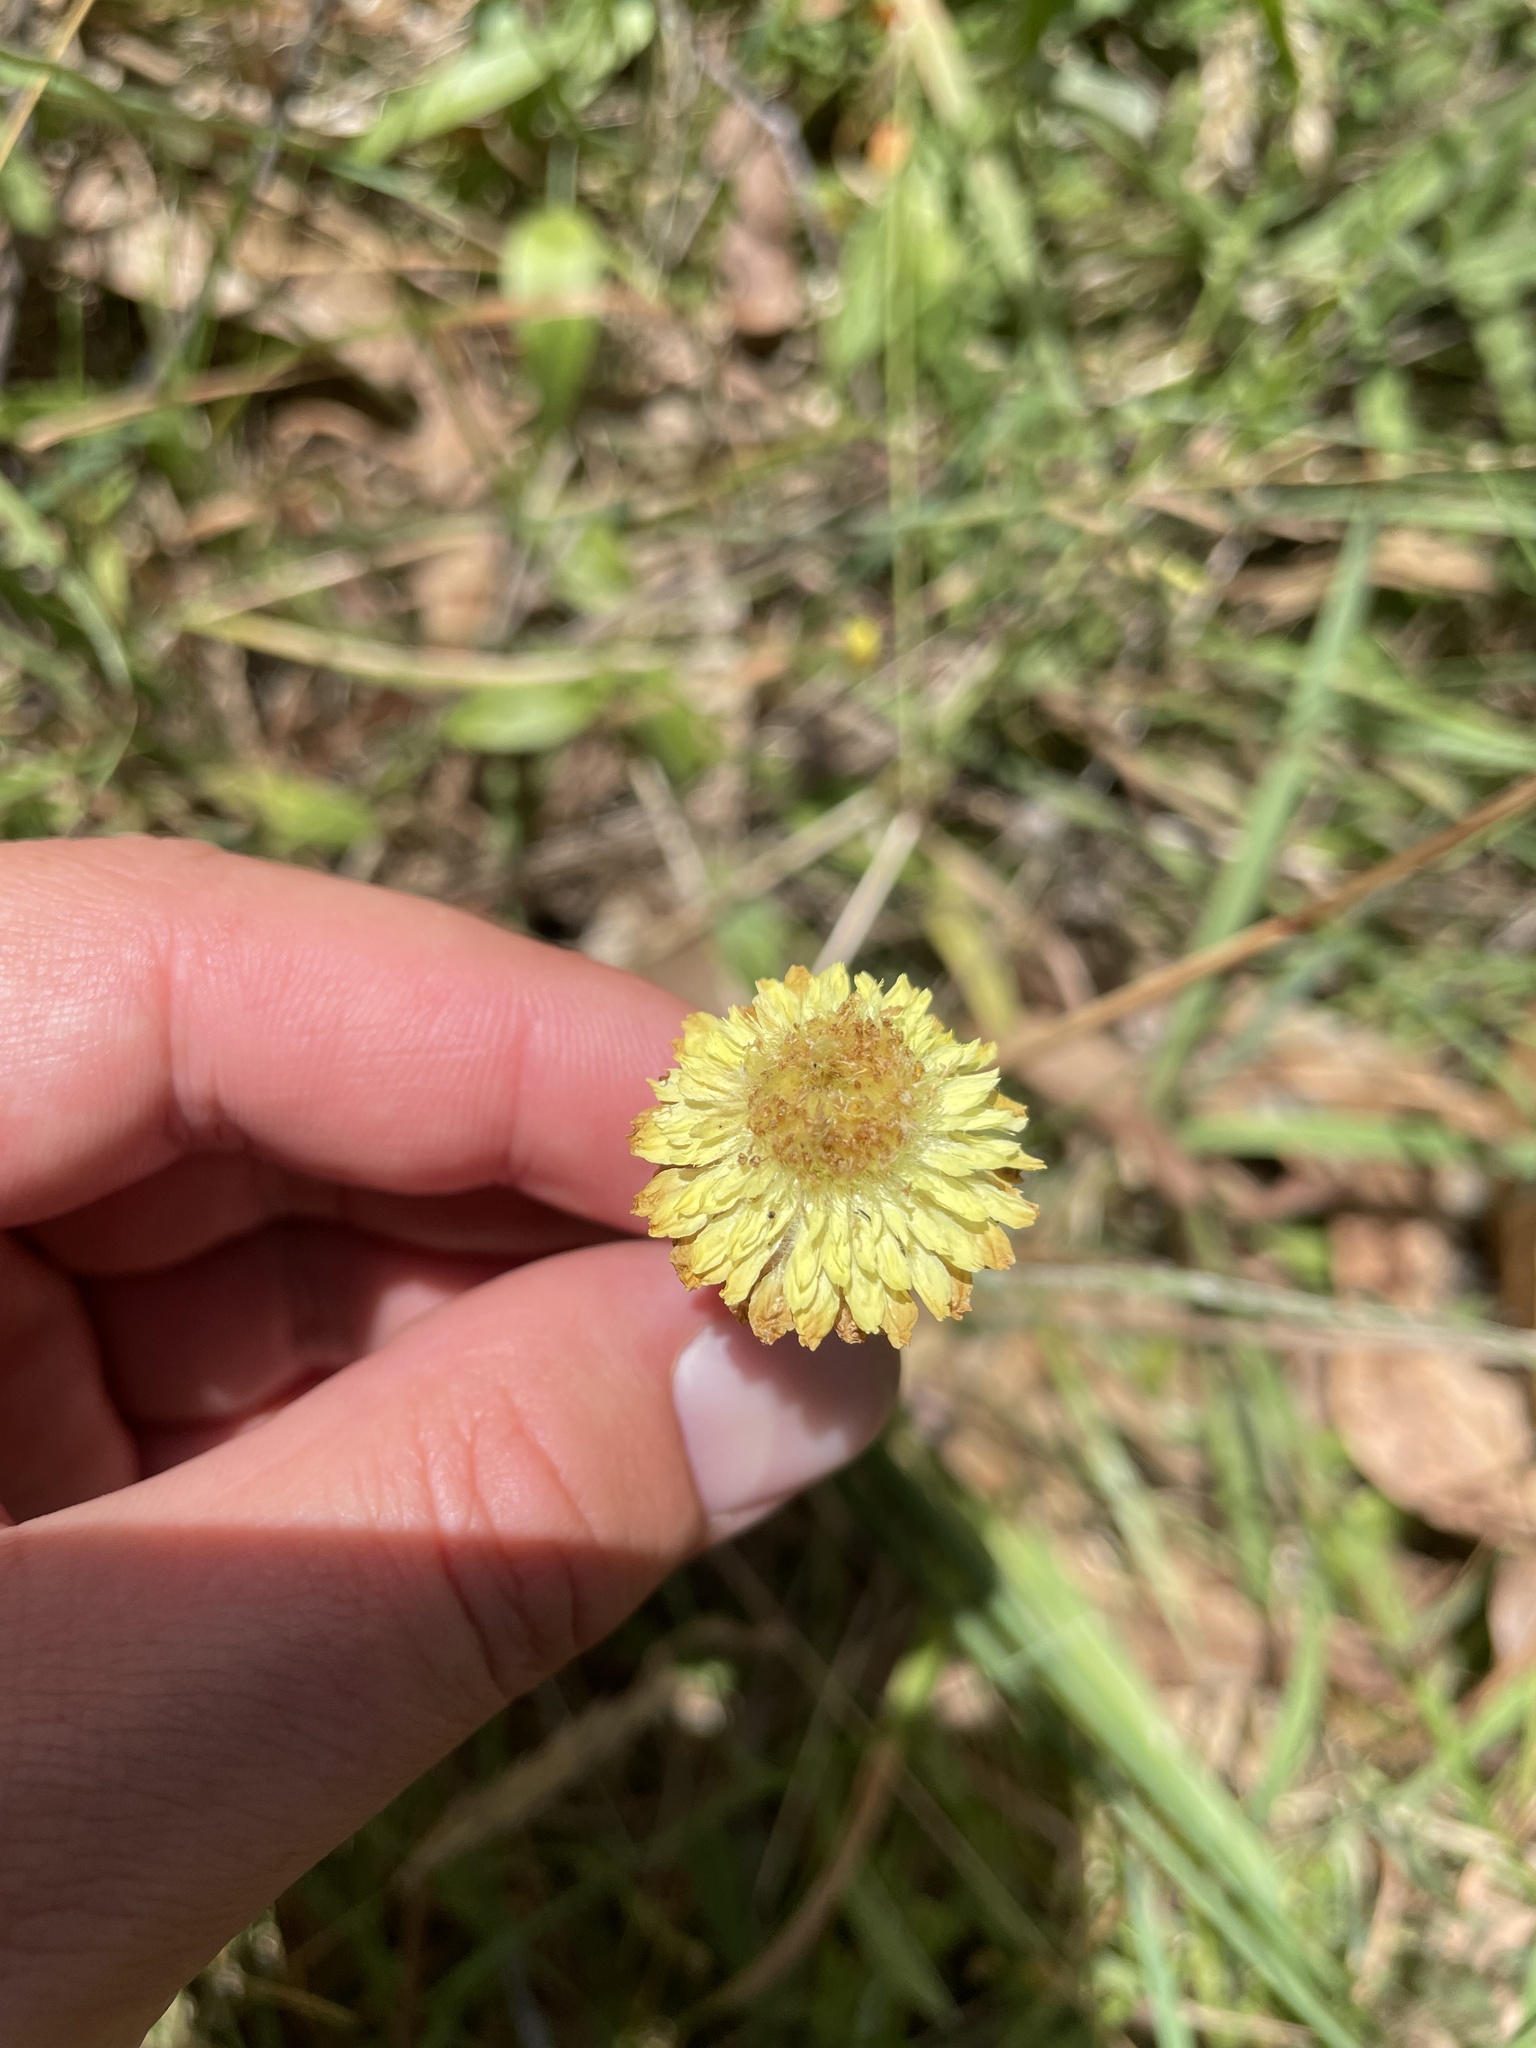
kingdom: Plantae
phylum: Tracheophyta
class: Magnoliopsida
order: Asterales
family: Asteraceae
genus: Coronidium
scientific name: Coronidium scorpioides
